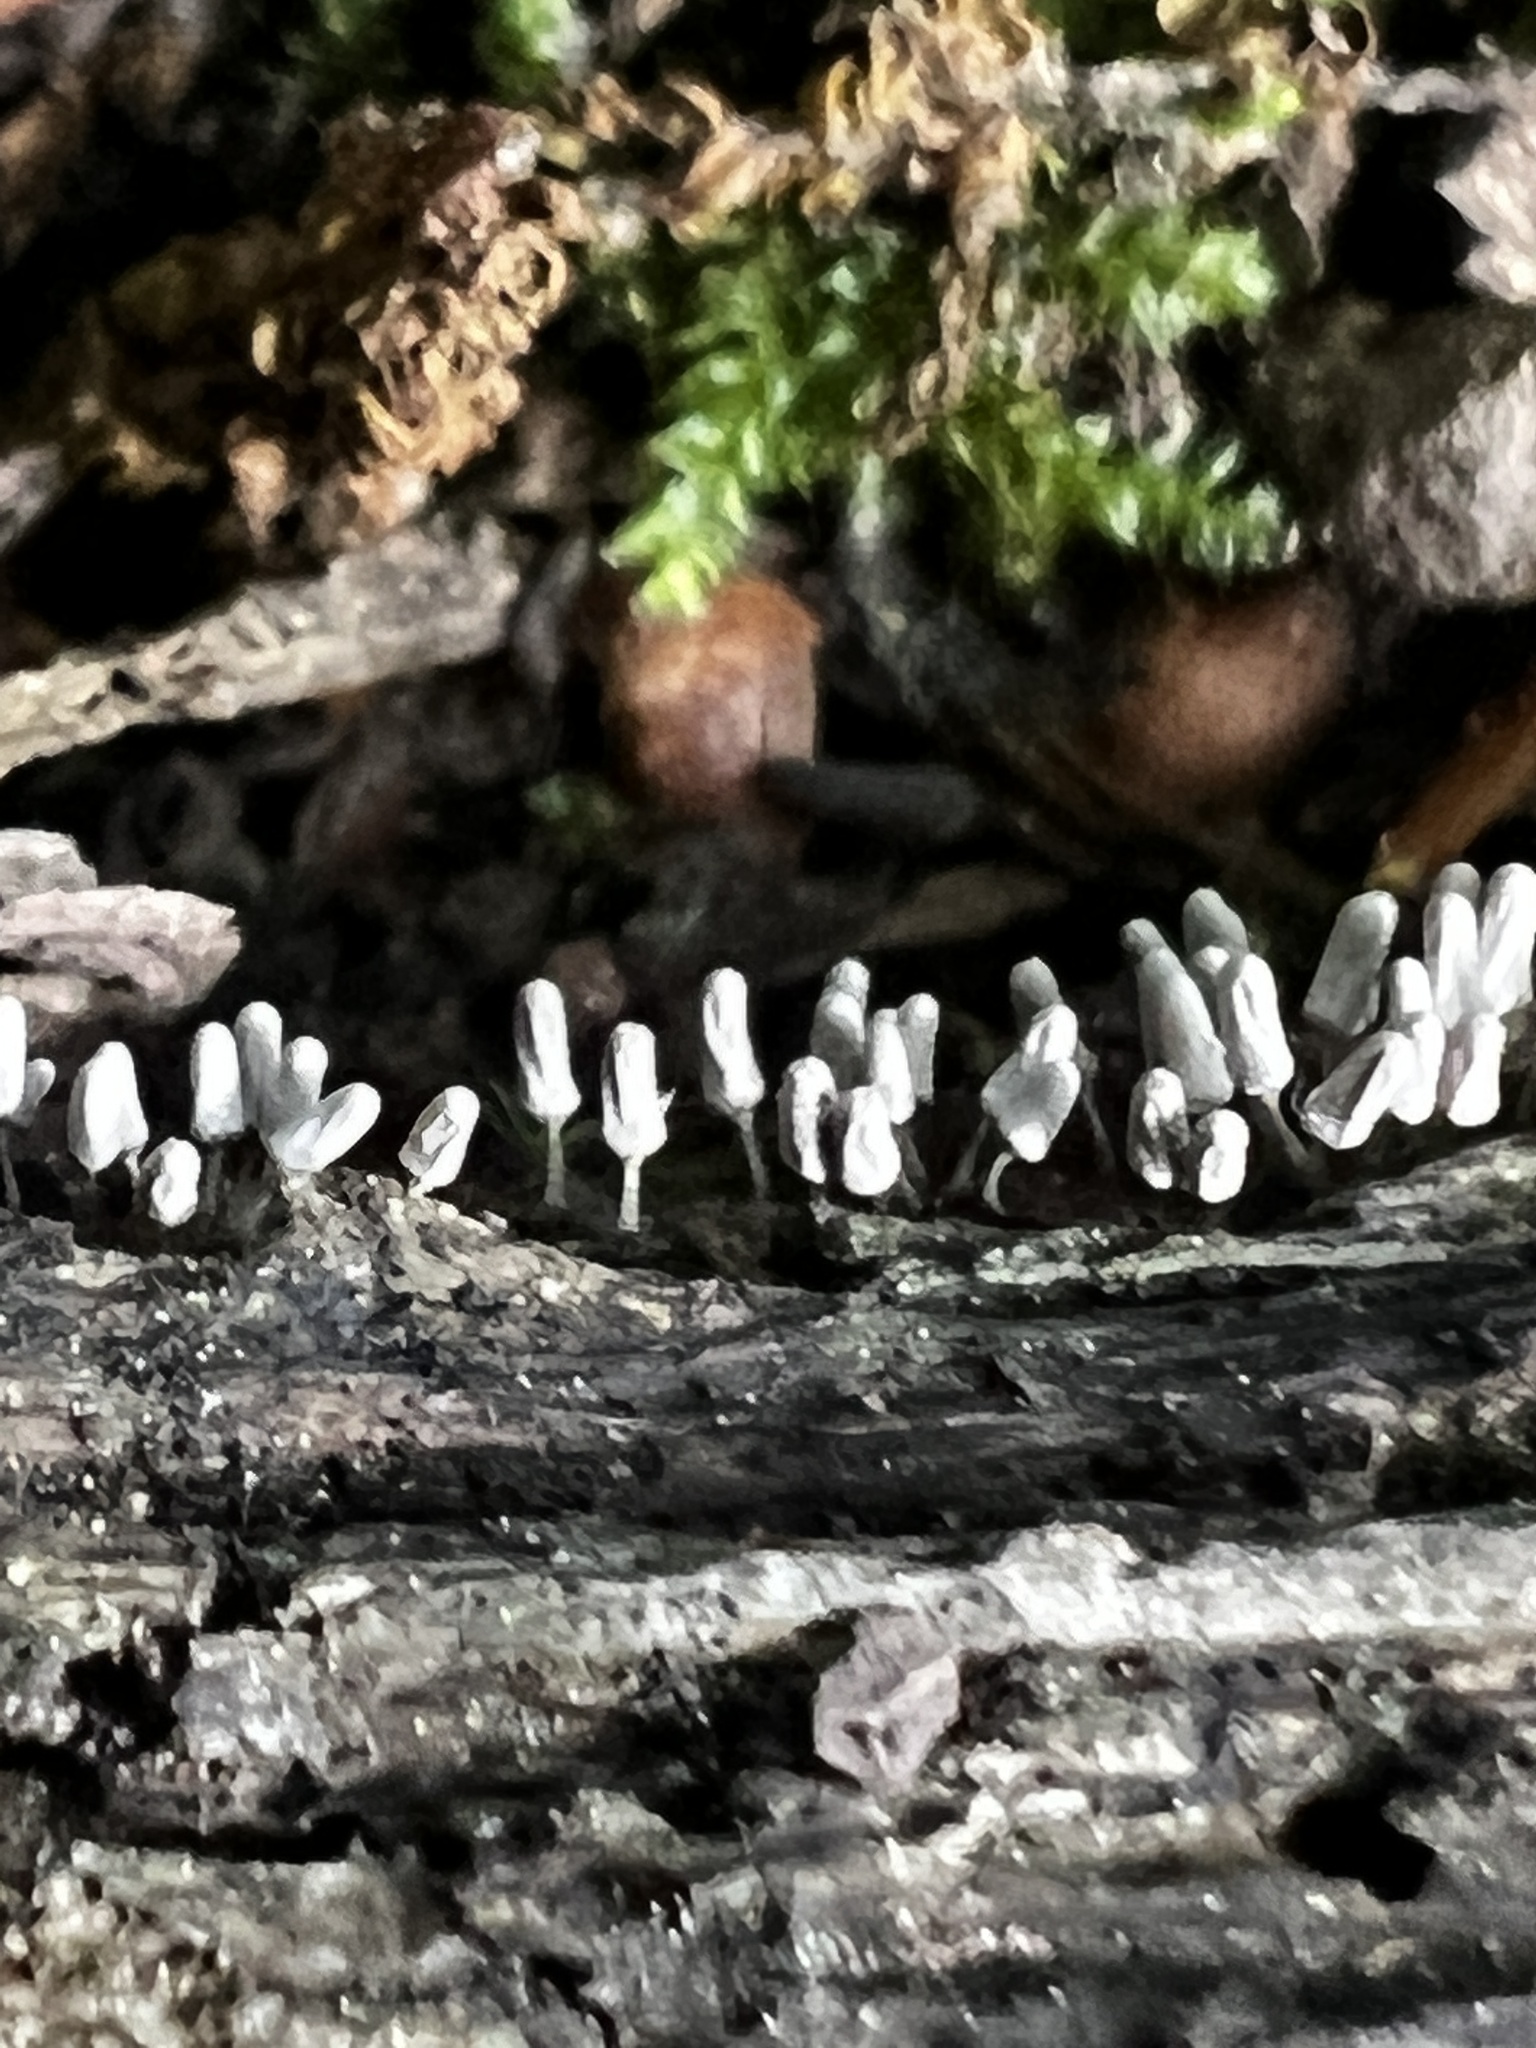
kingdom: Protozoa
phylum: Mycetozoa
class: Myxomycetes
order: Trichiales
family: Arcyriaceae
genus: Arcyria
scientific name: Arcyria cinerea
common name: White carnival candy slime mold
